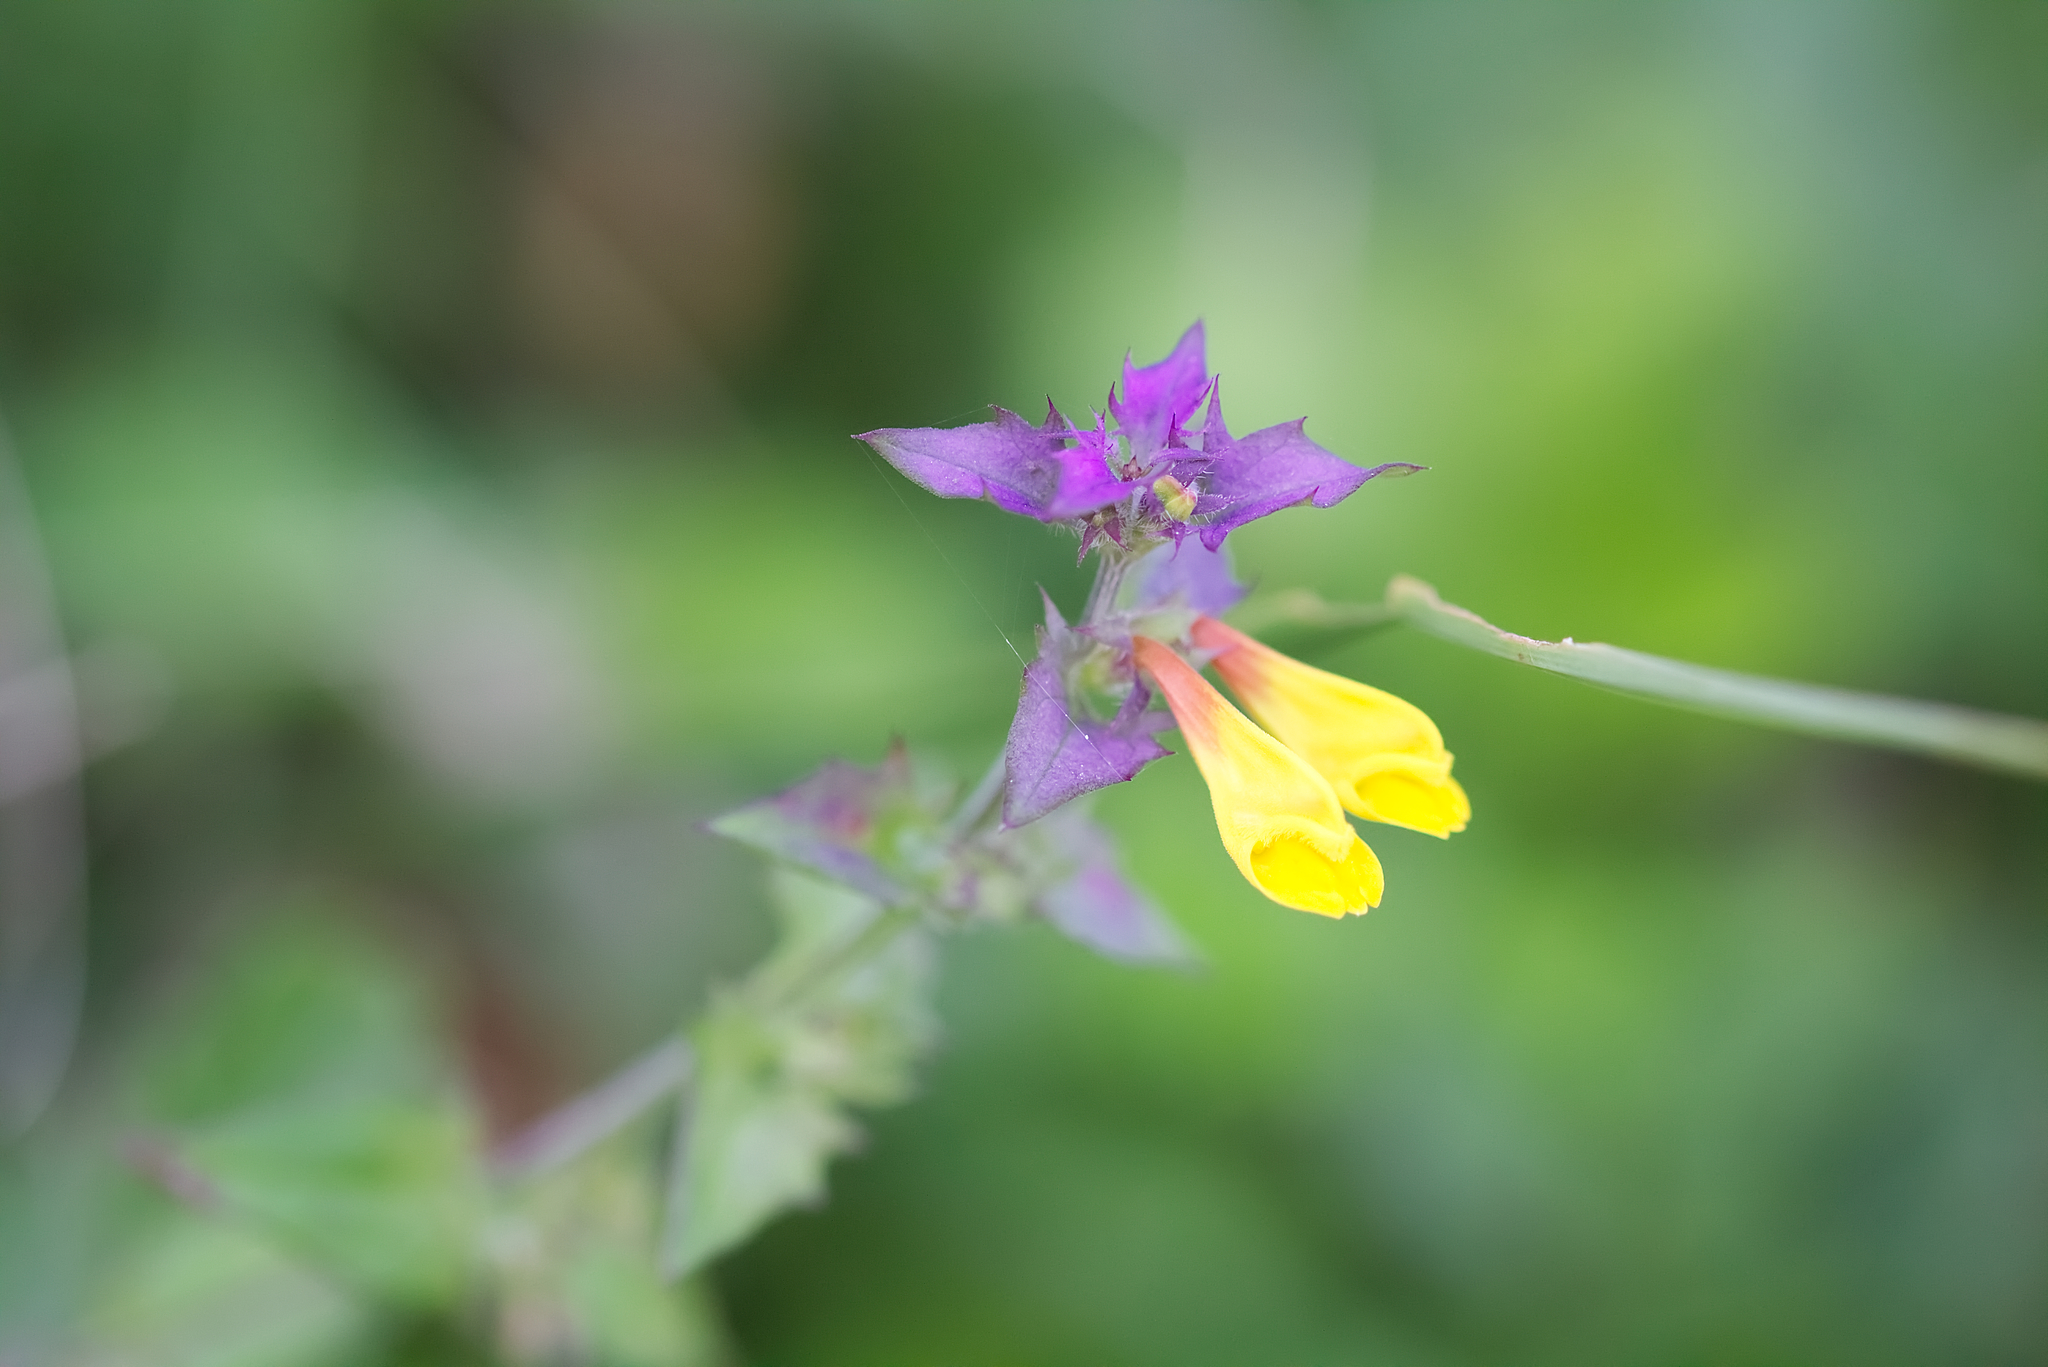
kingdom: Plantae
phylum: Tracheophyta
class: Magnoliopsida
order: Lamiales
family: Orobanchaceae
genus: Melampyrum
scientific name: Melampyrum nemorosum
